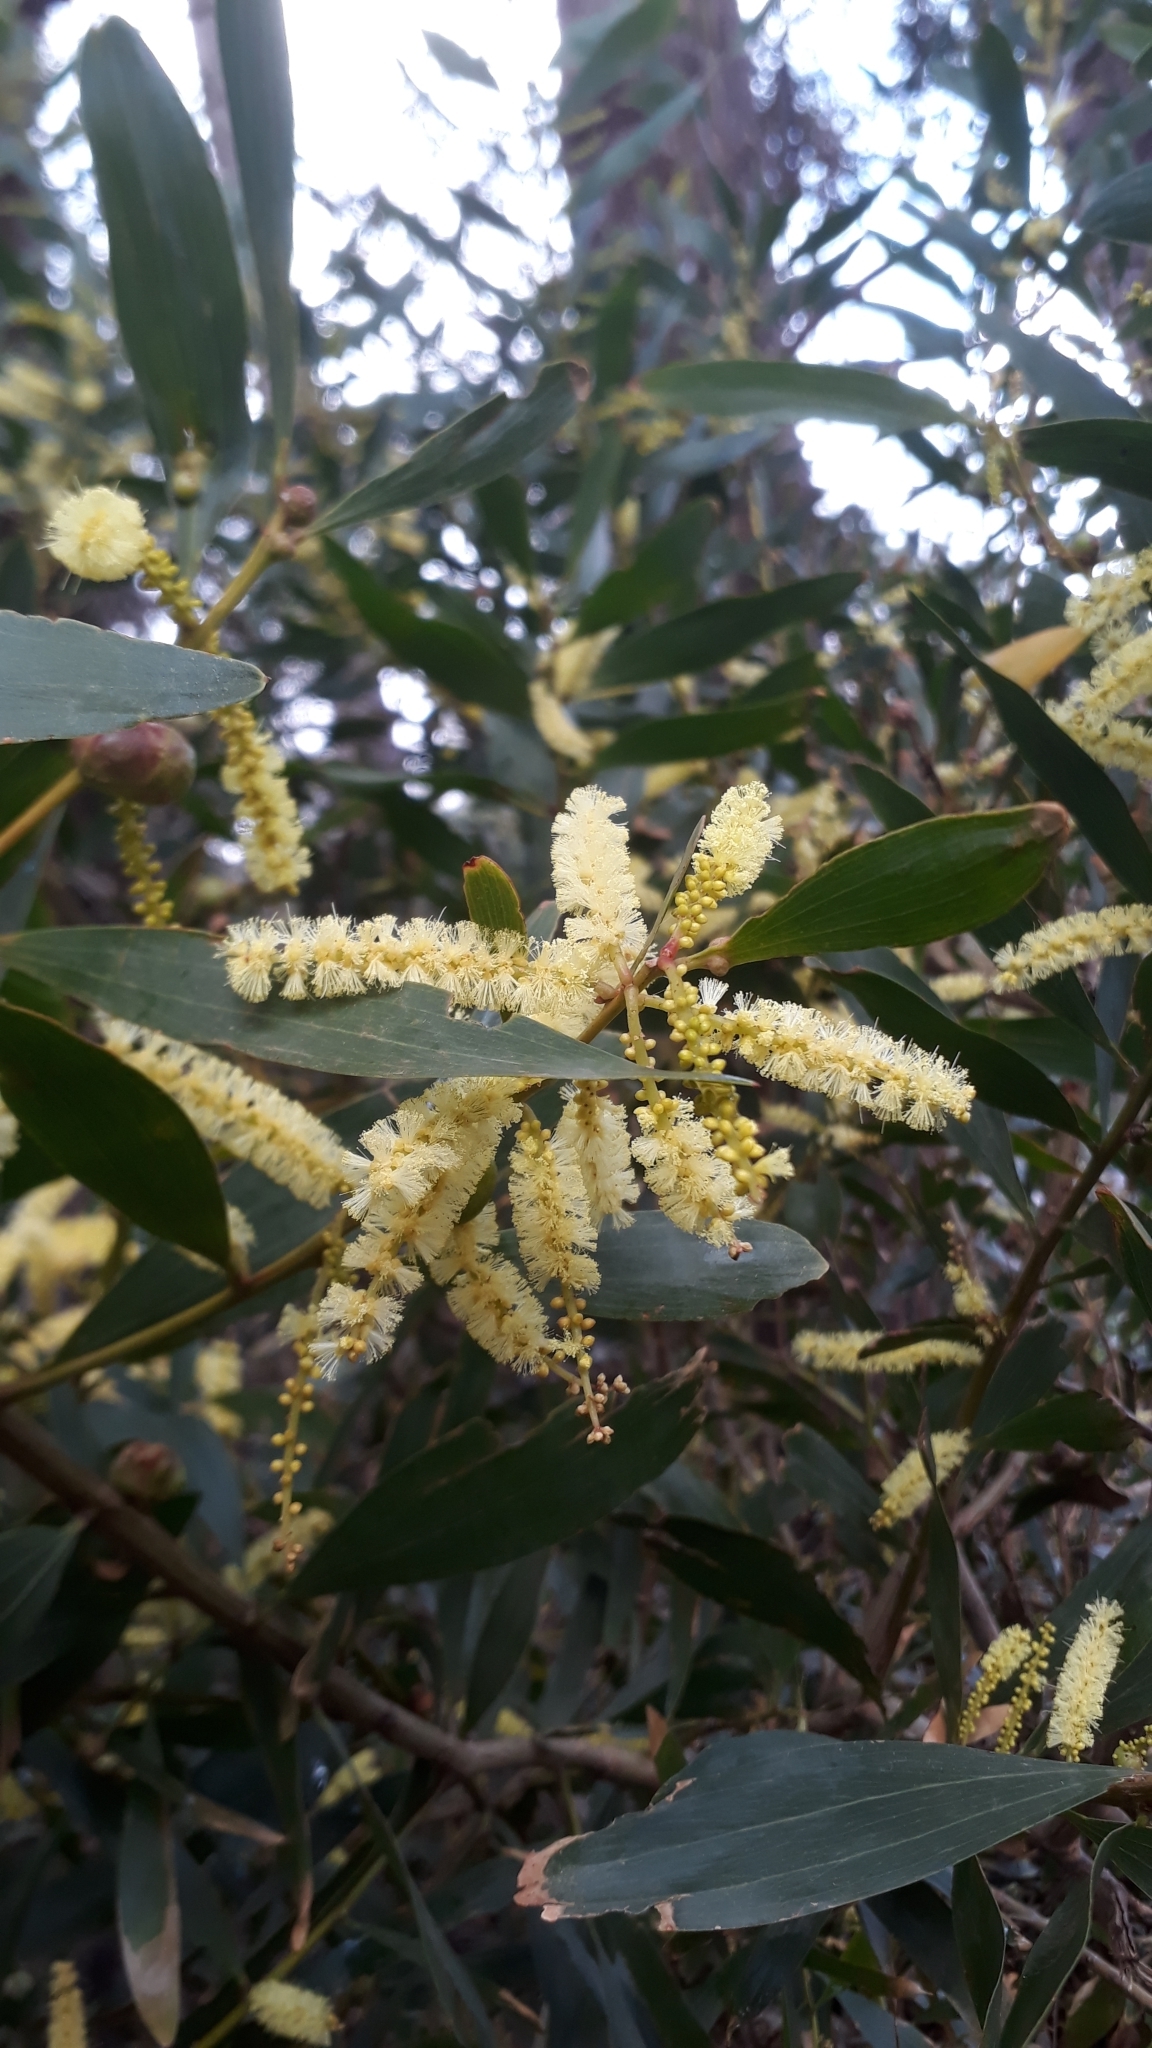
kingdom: Plantae
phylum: Tracheophyta
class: Magnoliopsida
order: Fabales
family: Fabaceae
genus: Acacia
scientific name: Acacia longifolia
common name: Sydney golden wattle
